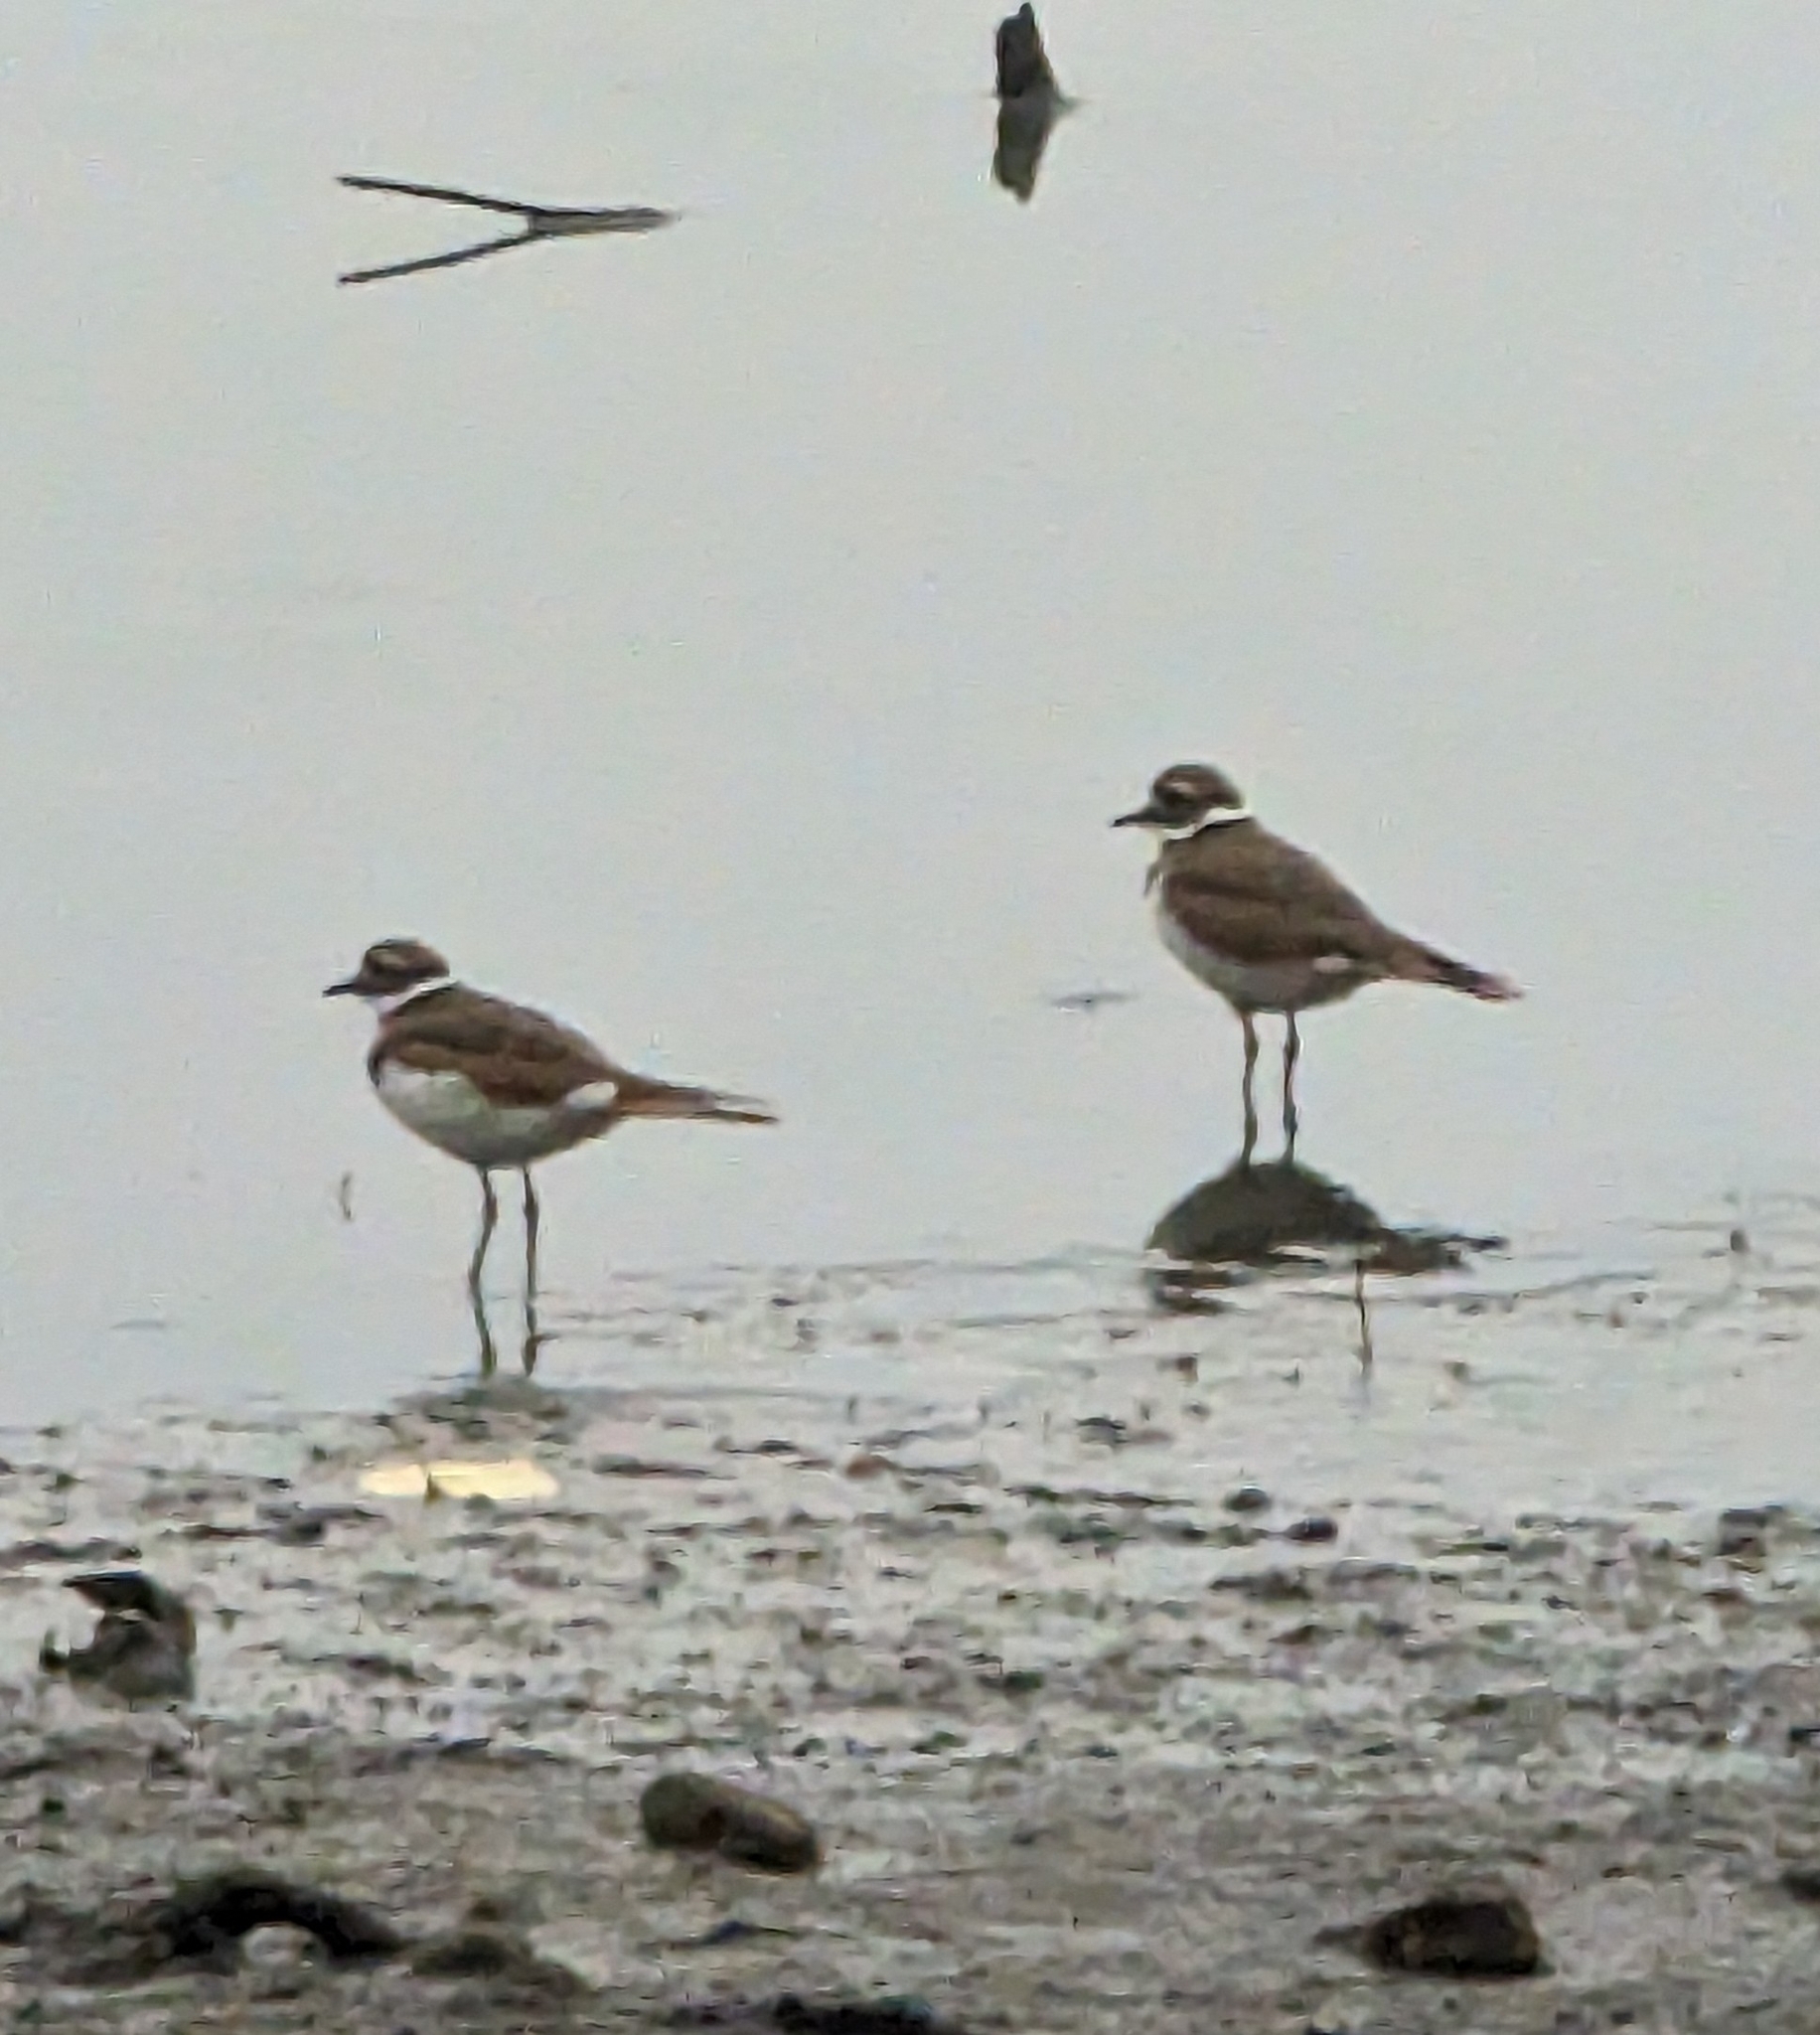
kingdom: Animalia
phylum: Chordata
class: Aves
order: Charadriiformes
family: Charadriidae
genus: Charadrius
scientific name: Charadrius vociferus
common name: Killdeer
